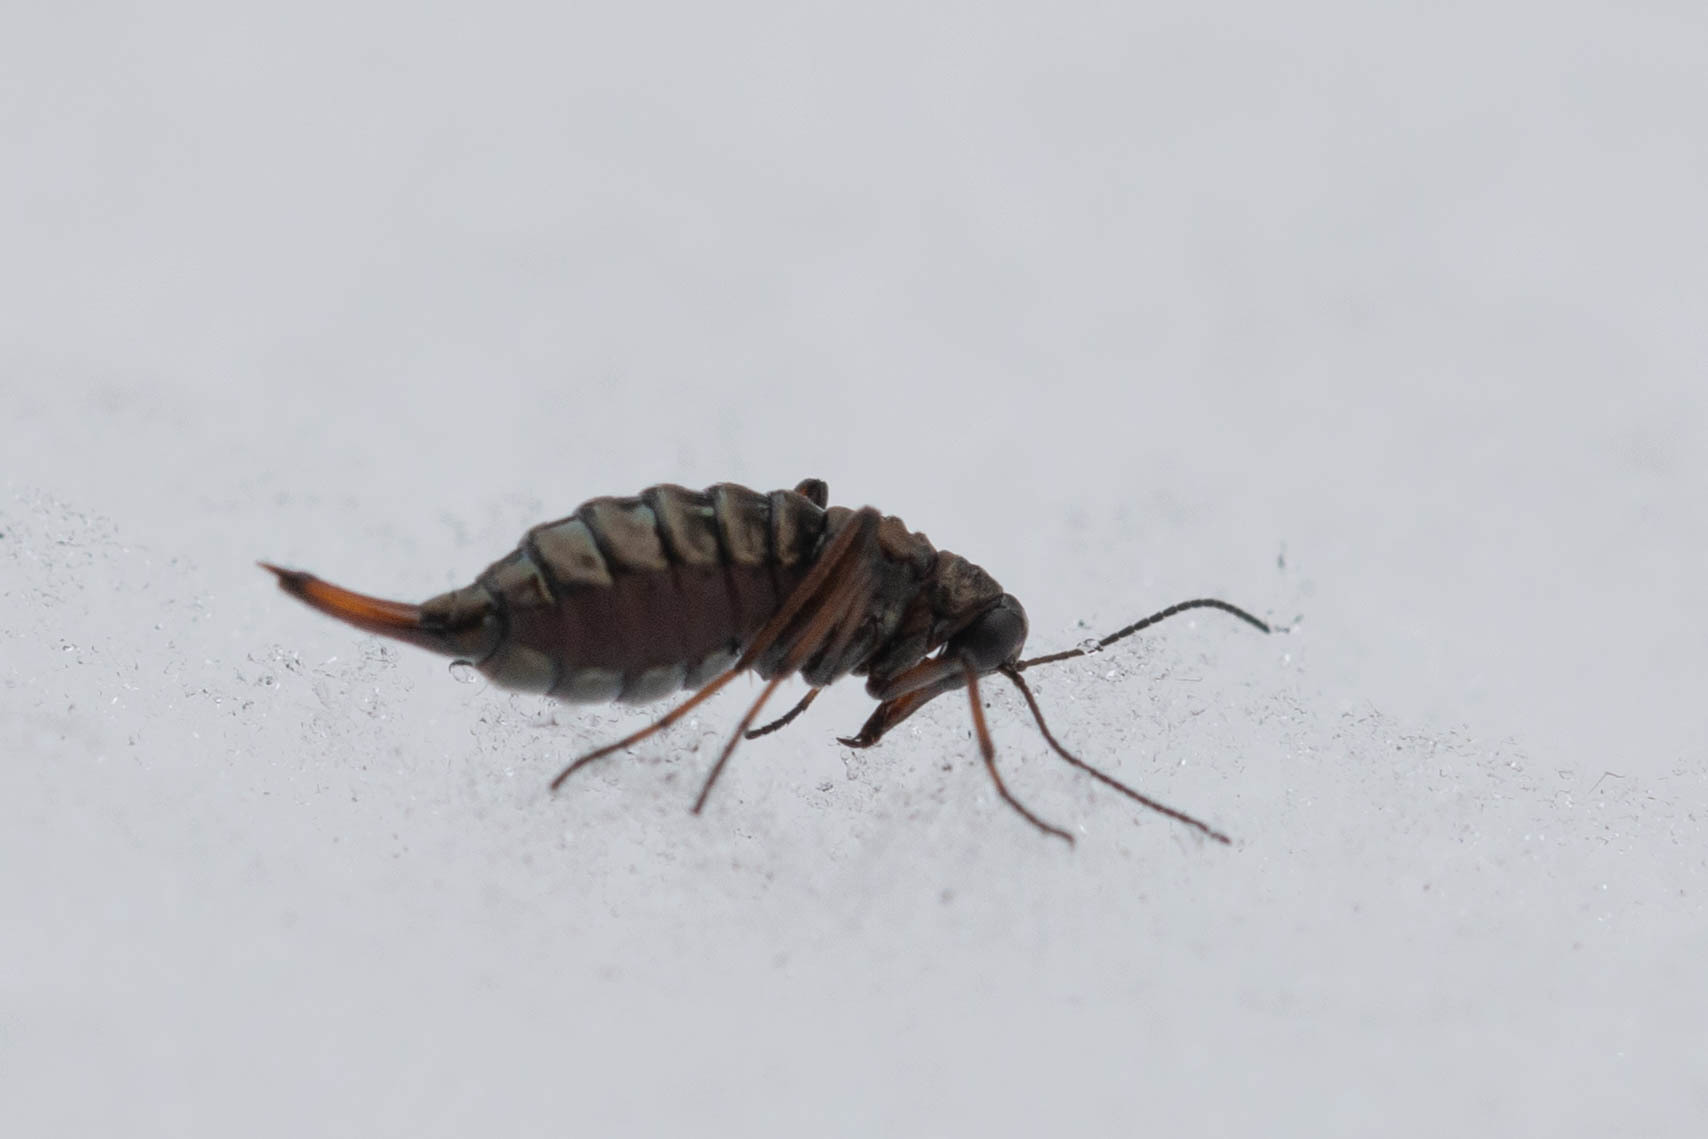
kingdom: Animalia
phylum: Arthropoda
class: Insecta
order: Mecoptera
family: Boreidae
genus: Boreus
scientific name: Boreus californicus
